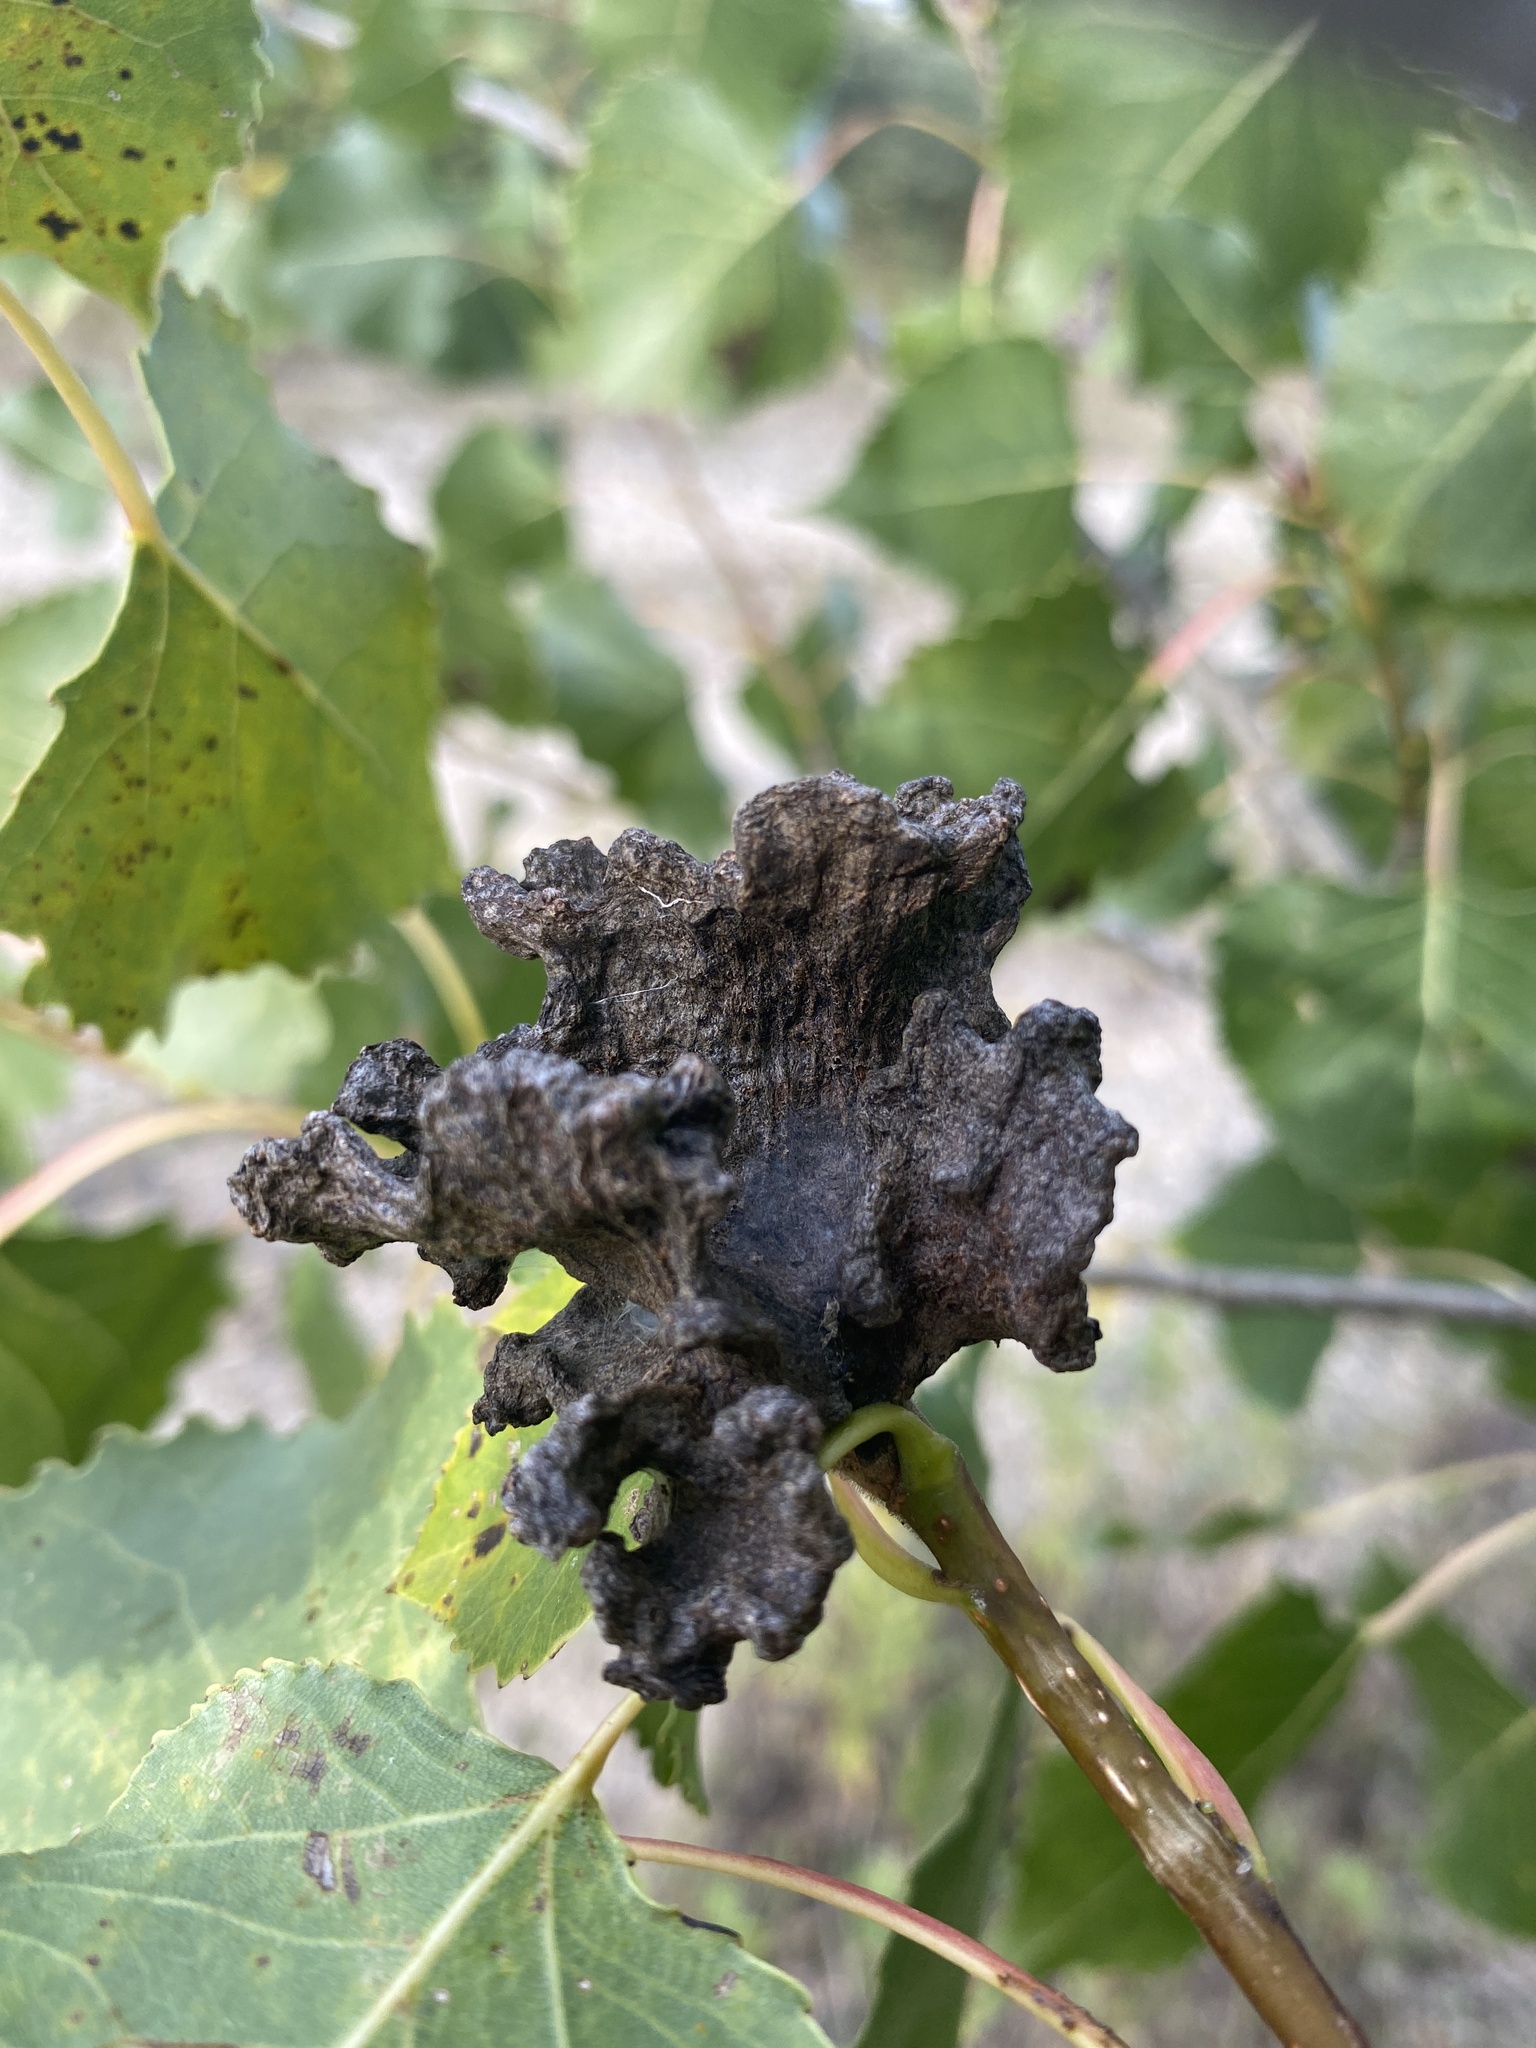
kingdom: Animalia
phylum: Arthropoda
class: Insecta
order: Hemiptera
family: Aphididae
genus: Mordwilkoja
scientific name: Mordwilkoja vagabunda
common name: Poplar vagabond aphid
